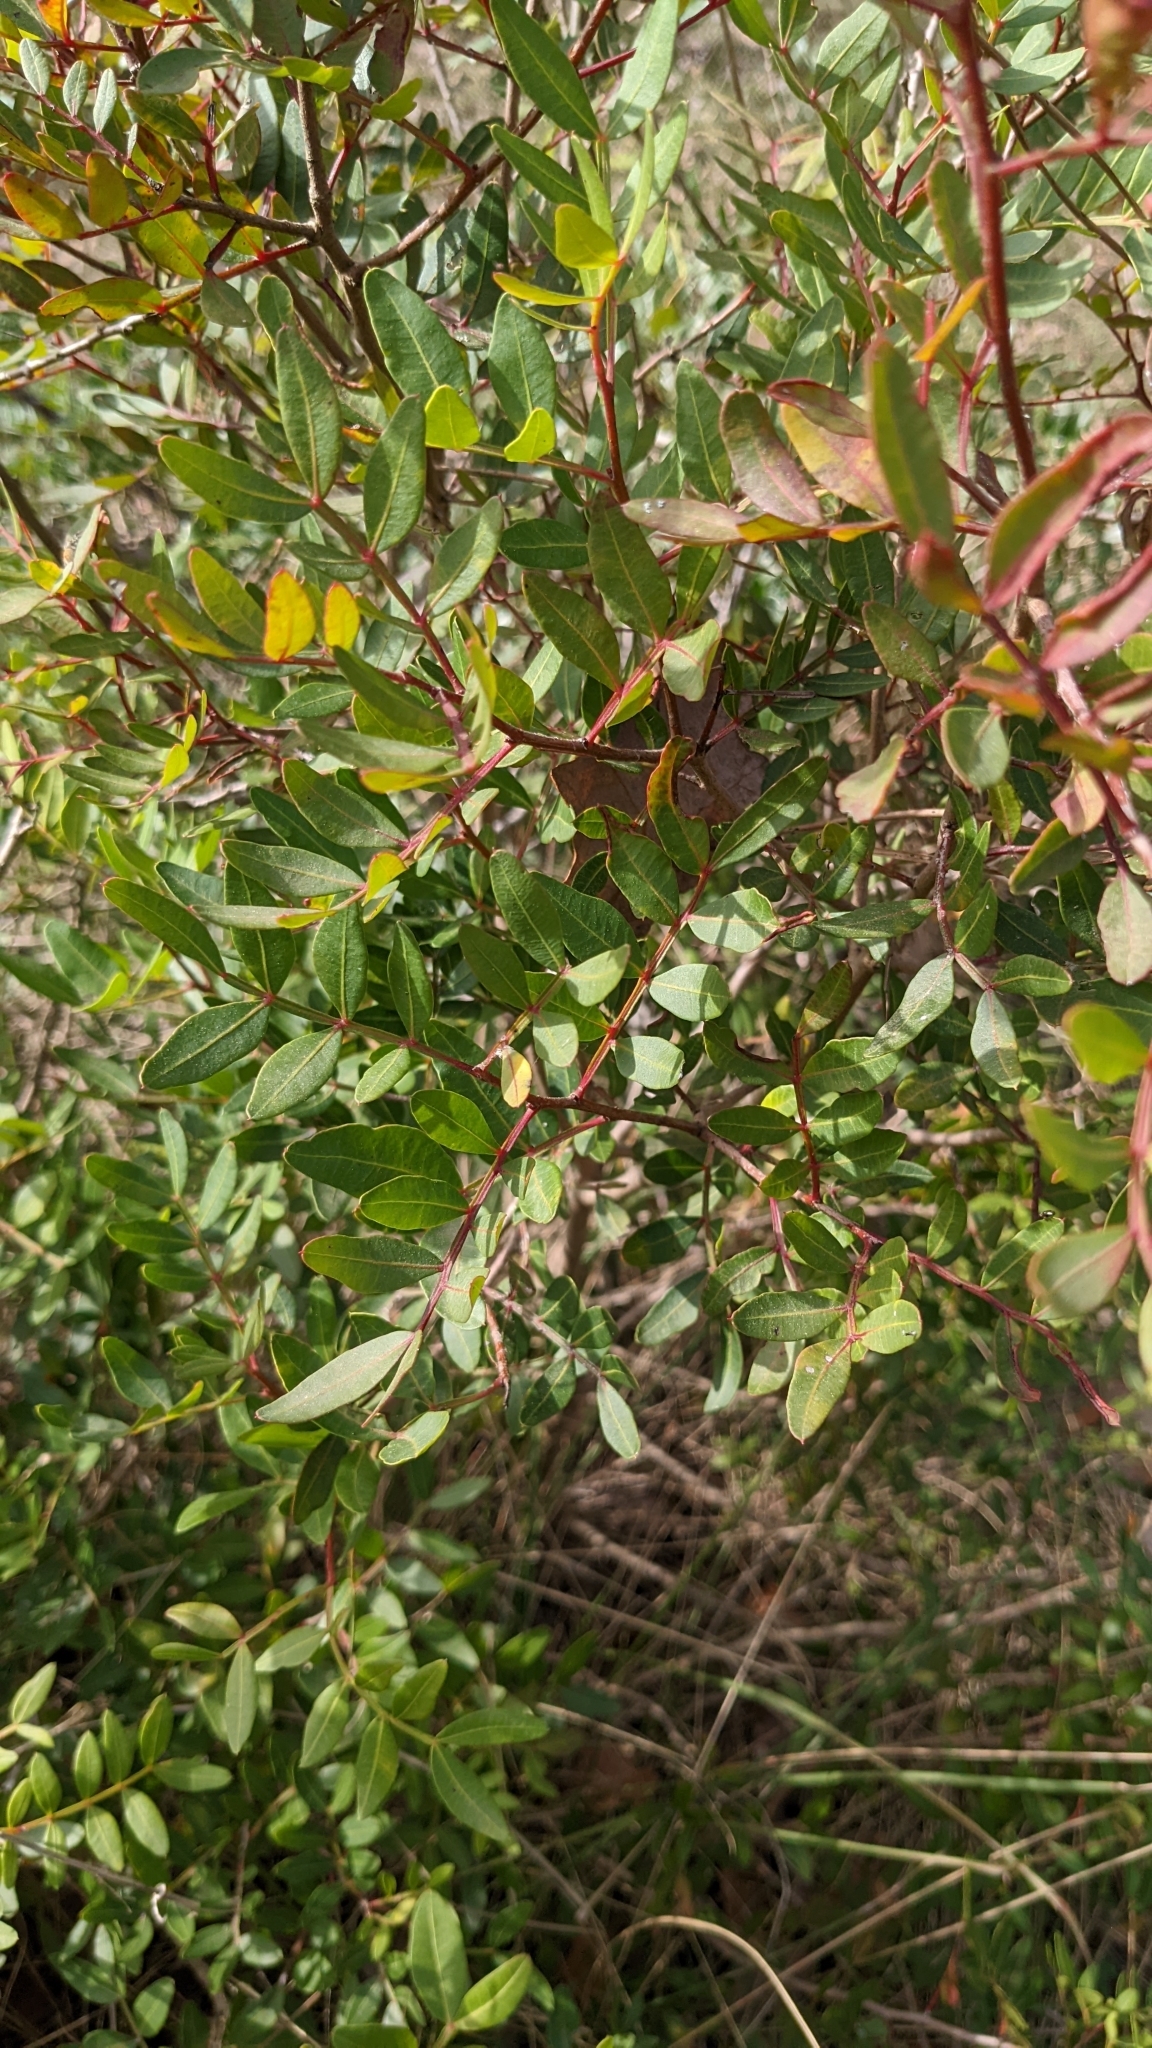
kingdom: Plantae
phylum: Tracheophyta
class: Magnoliopsida
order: Sapindales
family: Anacardiaceae
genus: Pistacia
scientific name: Pistacia lentiscus
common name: Lentisk
